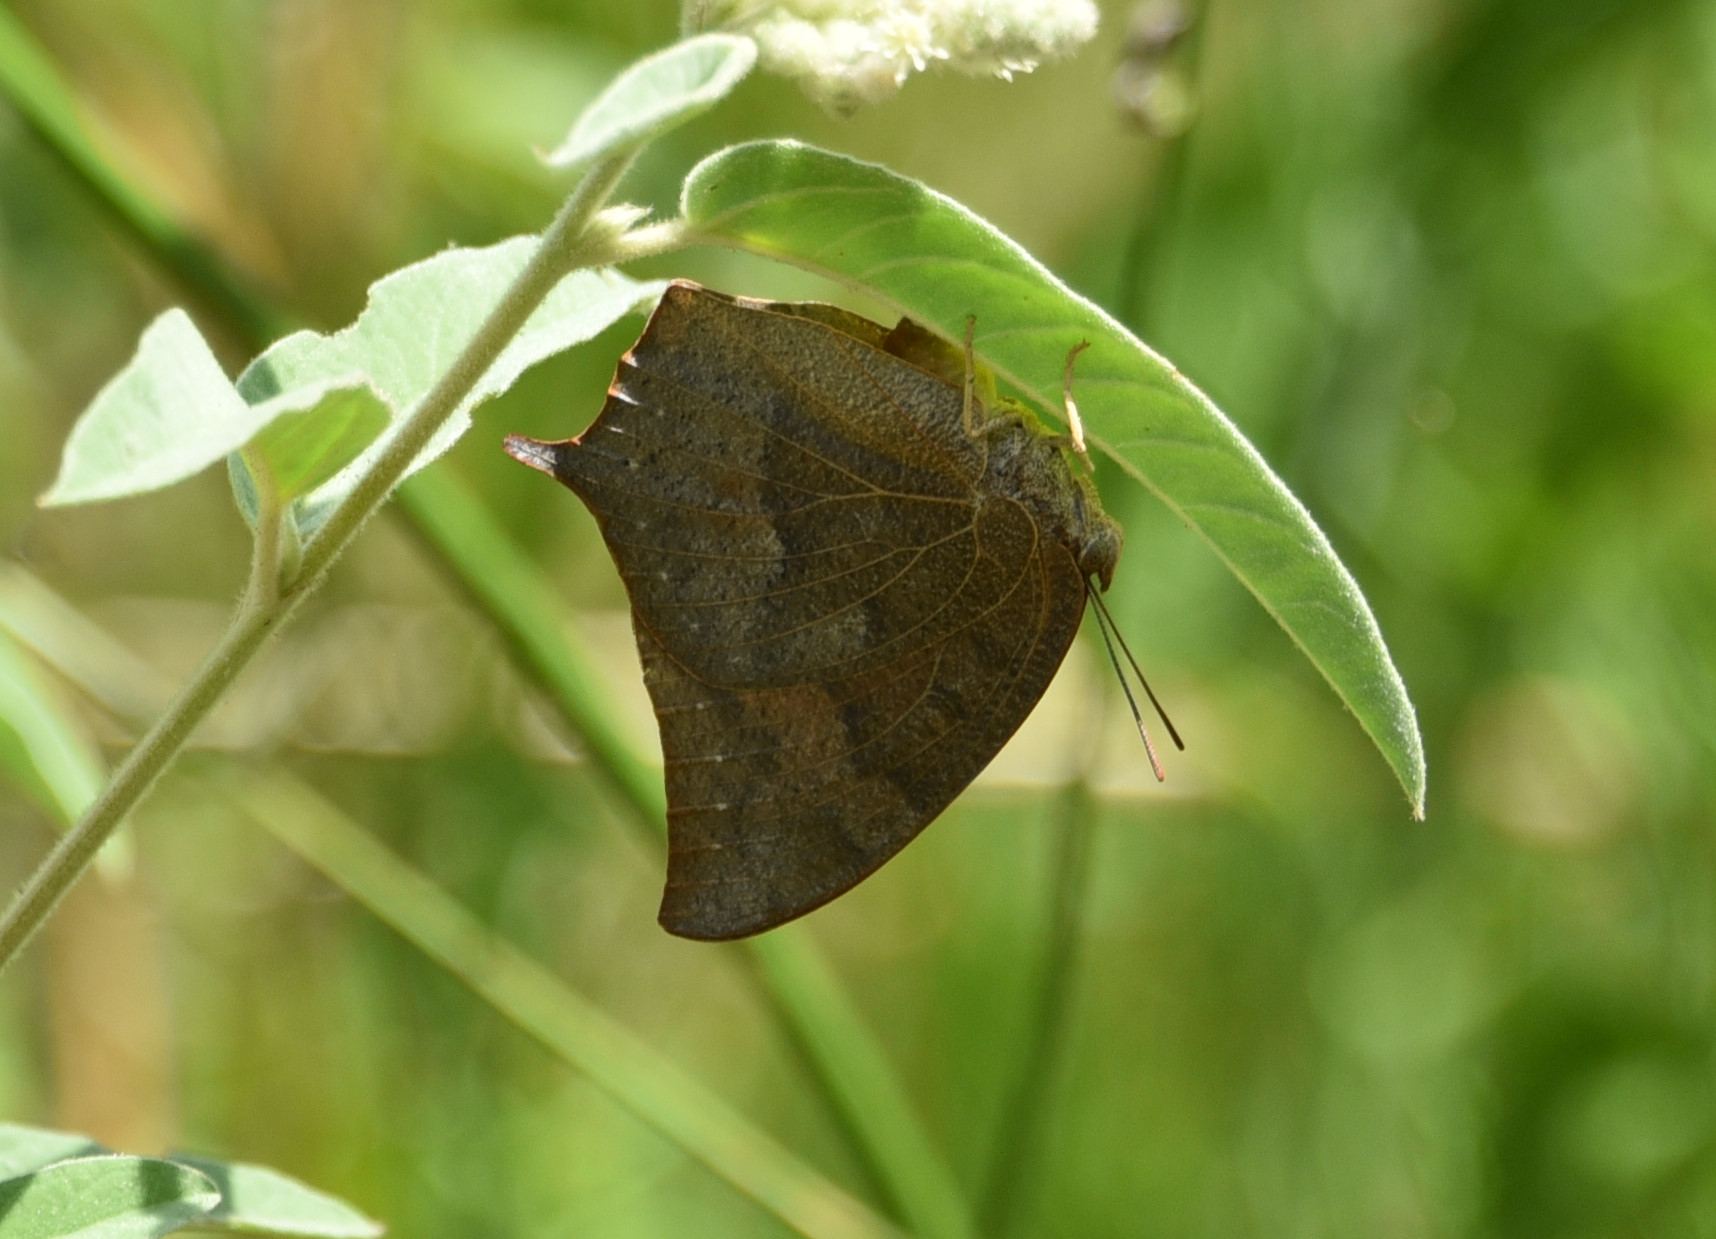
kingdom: Animalia
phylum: Arthropoda
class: Insecta
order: Lepidoptera
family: Nymphalidae
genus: Anaea
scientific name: Anaea andria
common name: Goatweed leafwing
